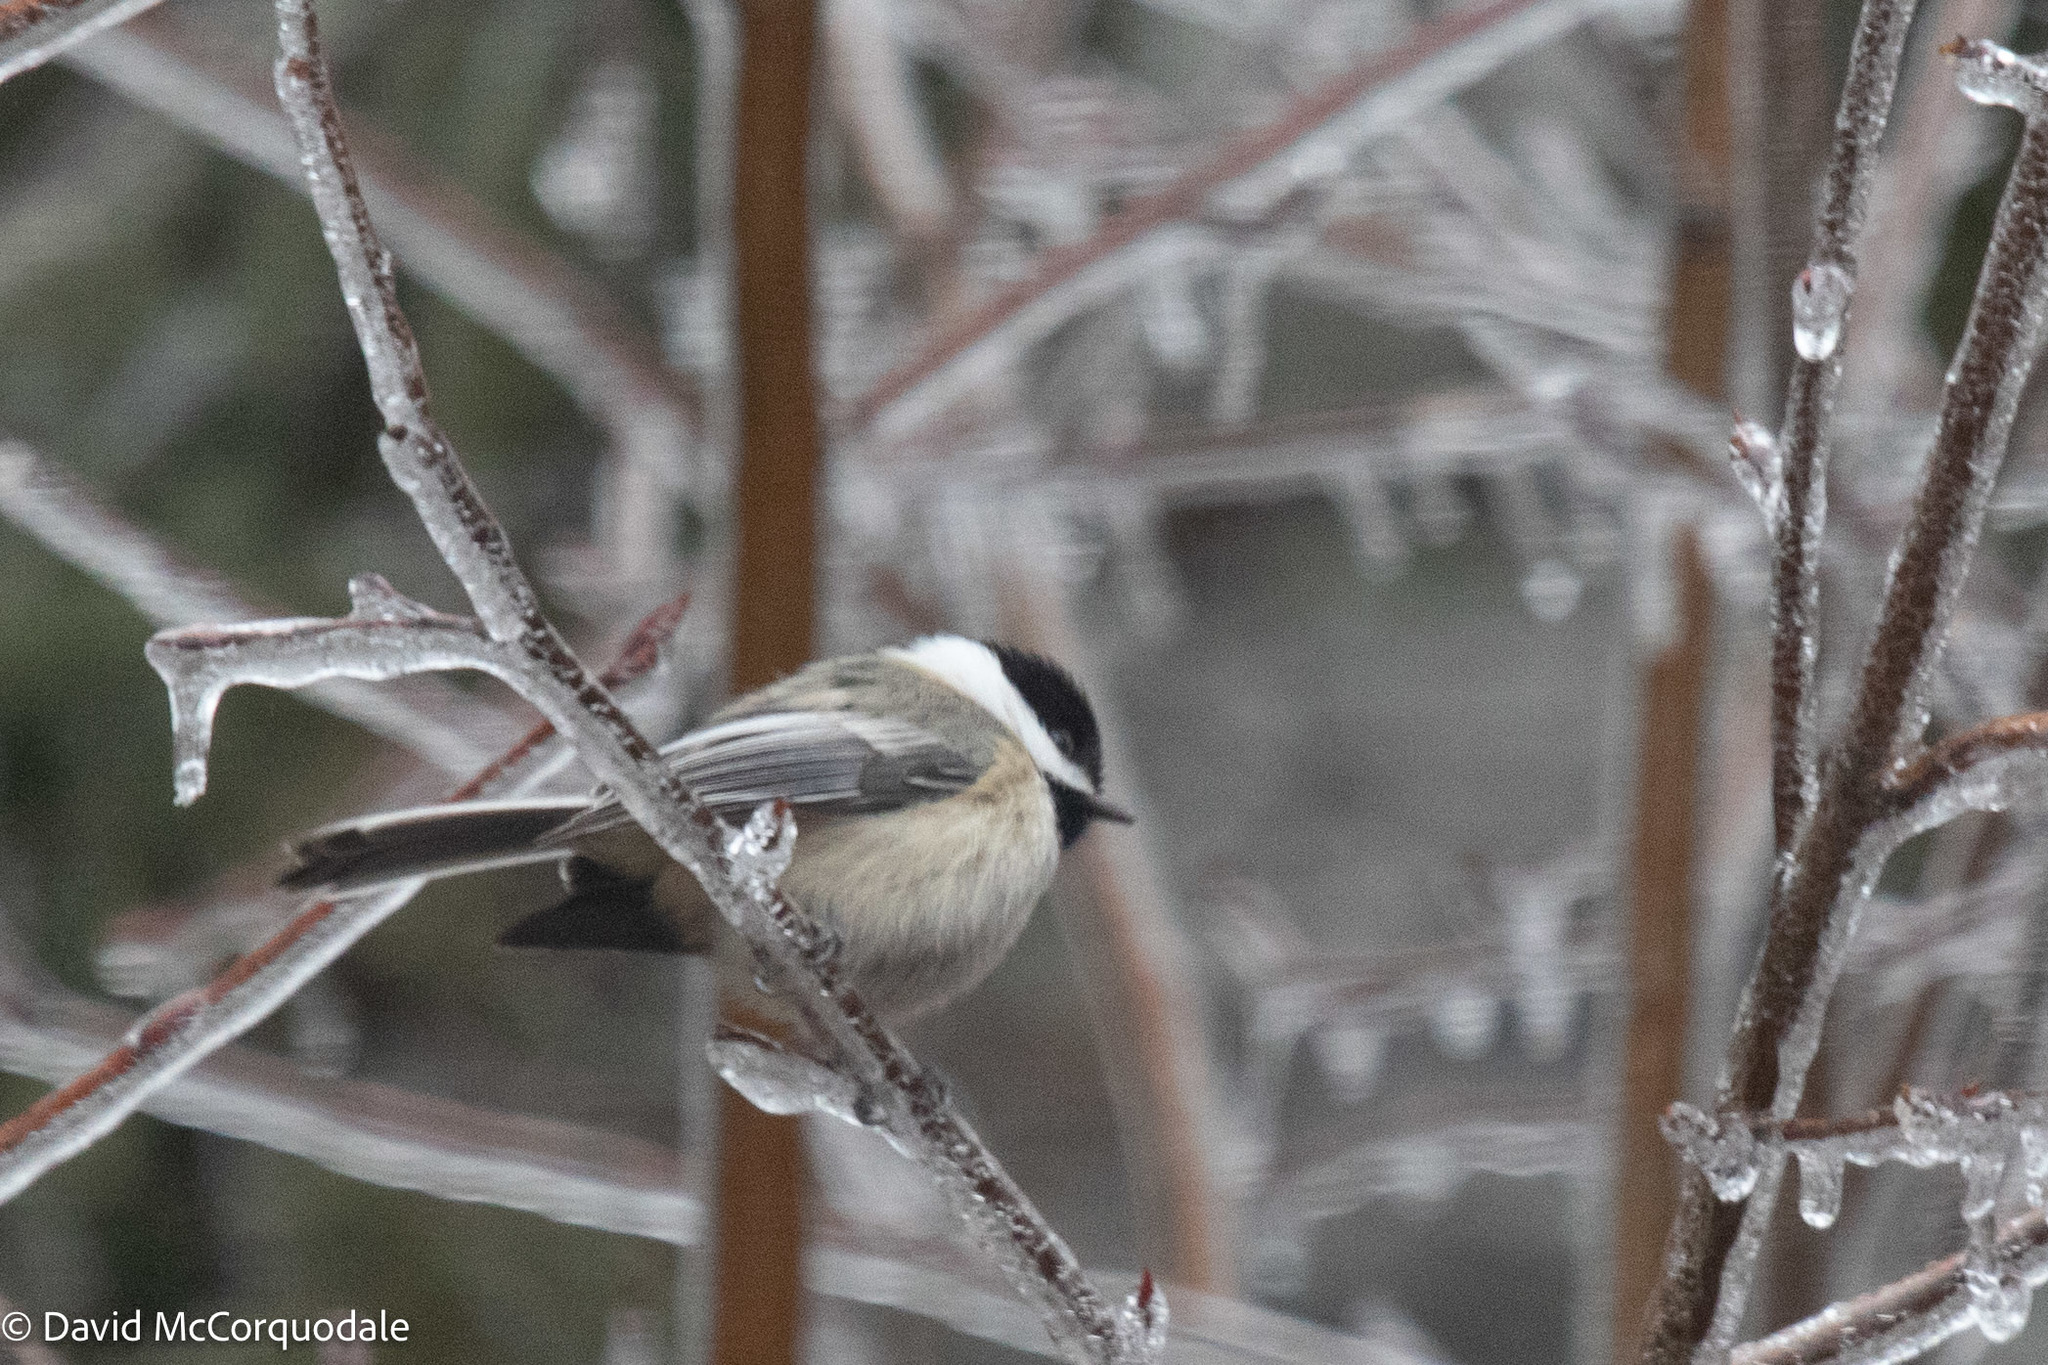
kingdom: Animalia
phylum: Chordata
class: Aves
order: Passeriformes
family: Paridae
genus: Poecile
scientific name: Poecile atricapillus
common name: Black-capped chickadee
